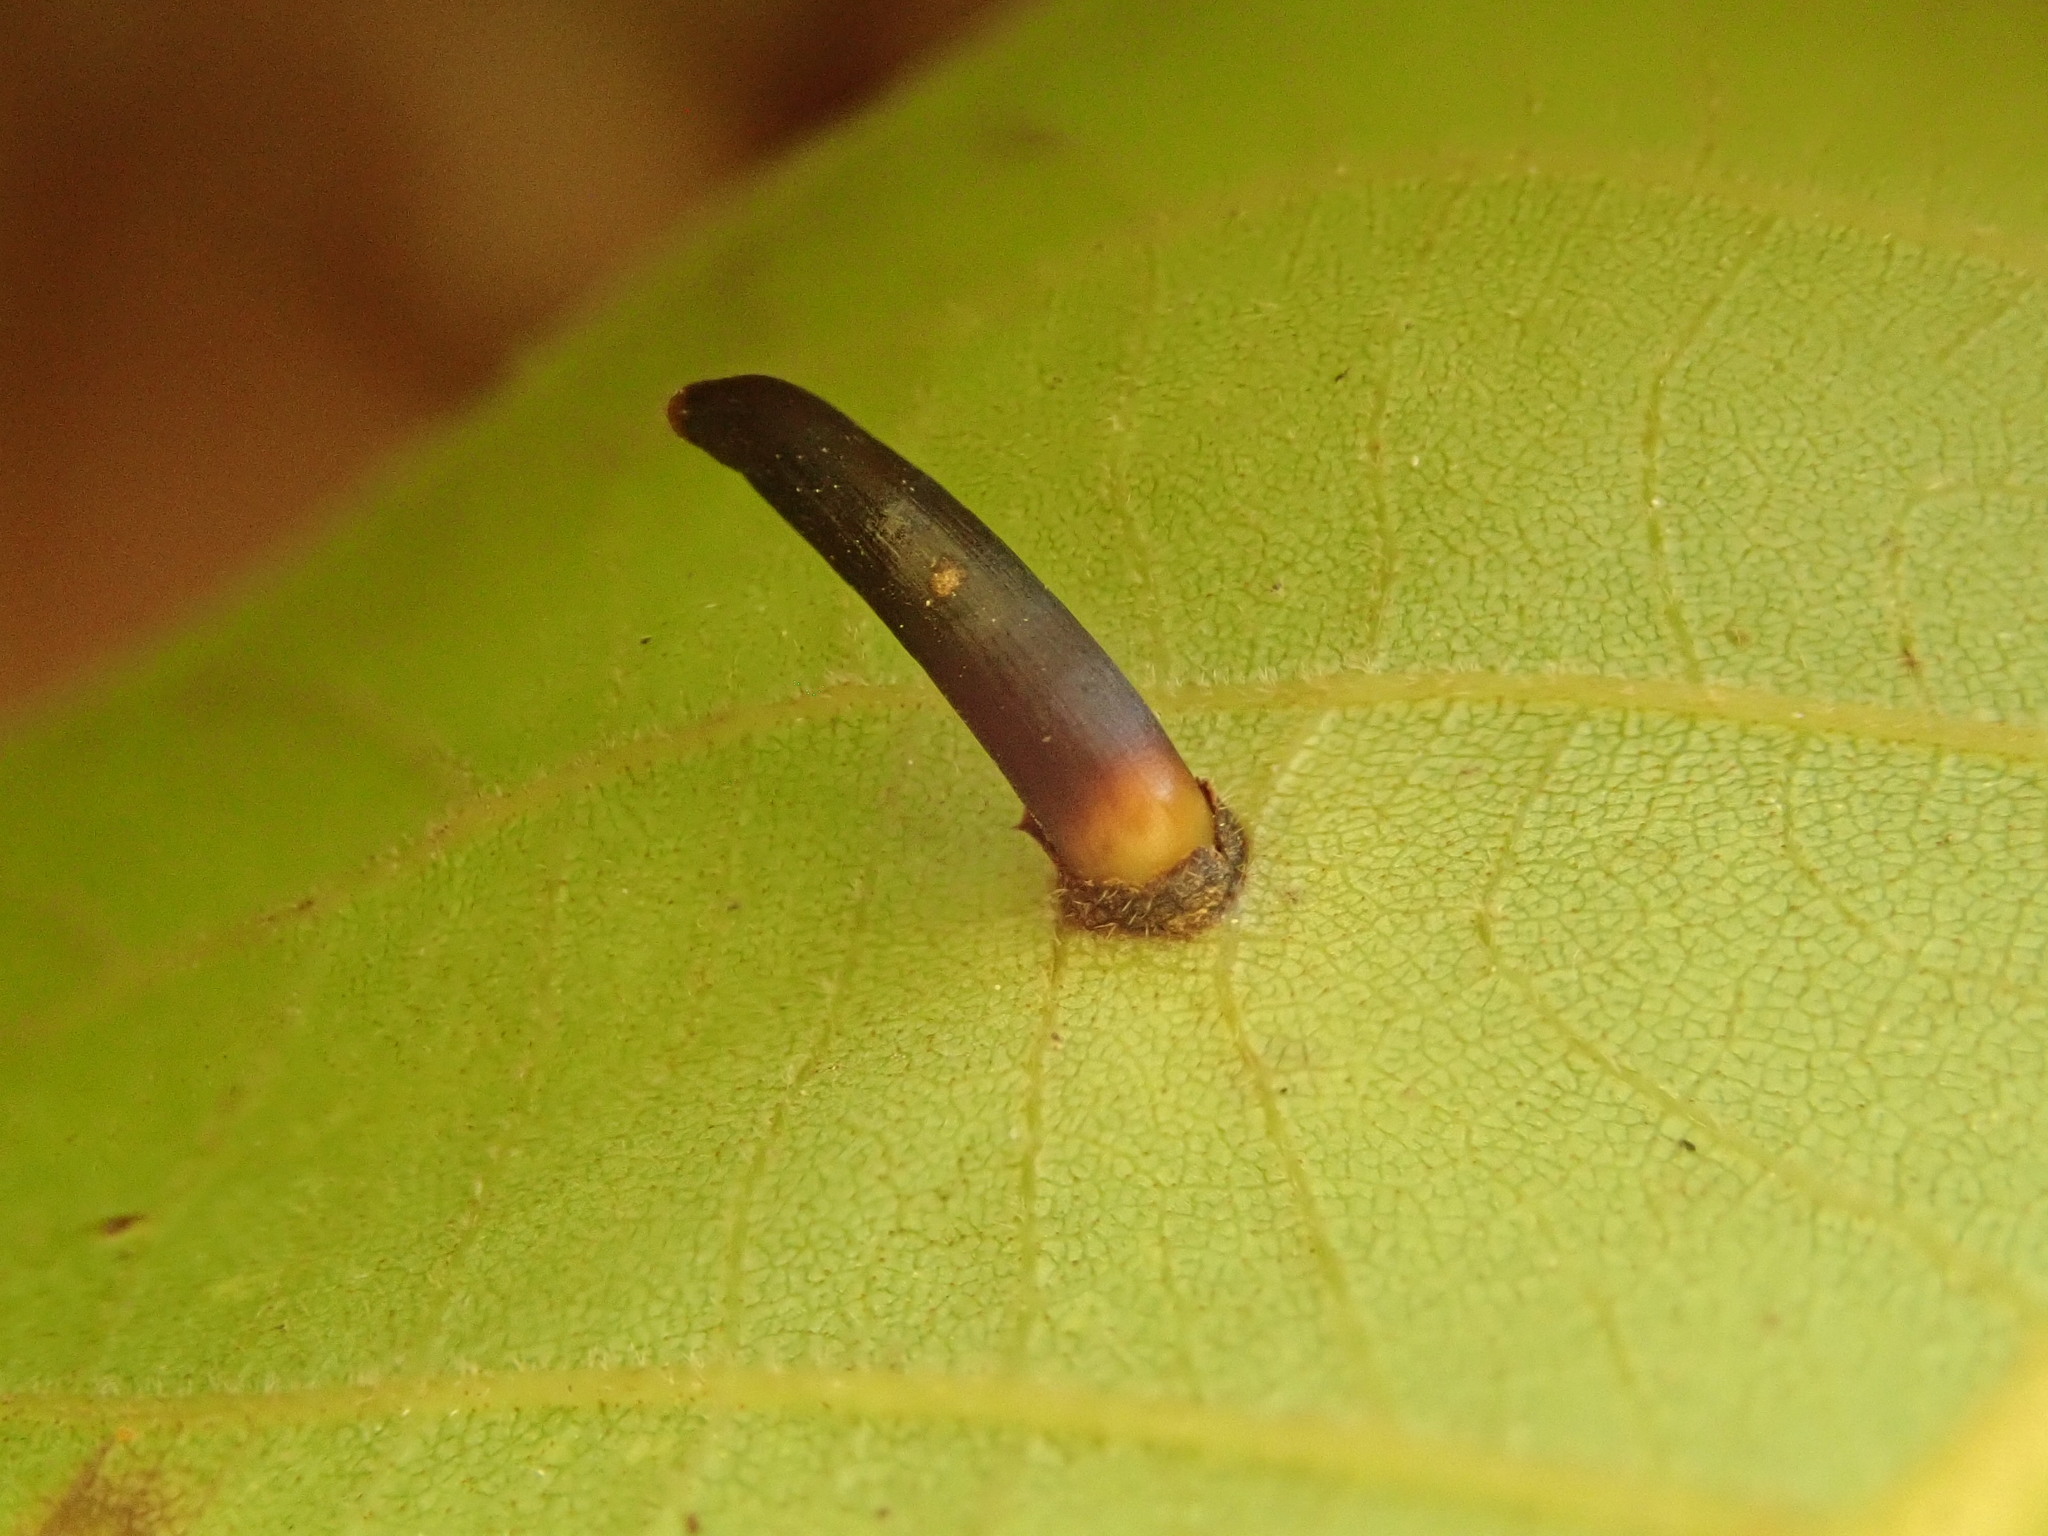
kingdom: Animalia
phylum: Arthropoda
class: Insecta
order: Diptera
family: Cecidomyiidae
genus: Caryomyia
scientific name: Caryomyia subulata
